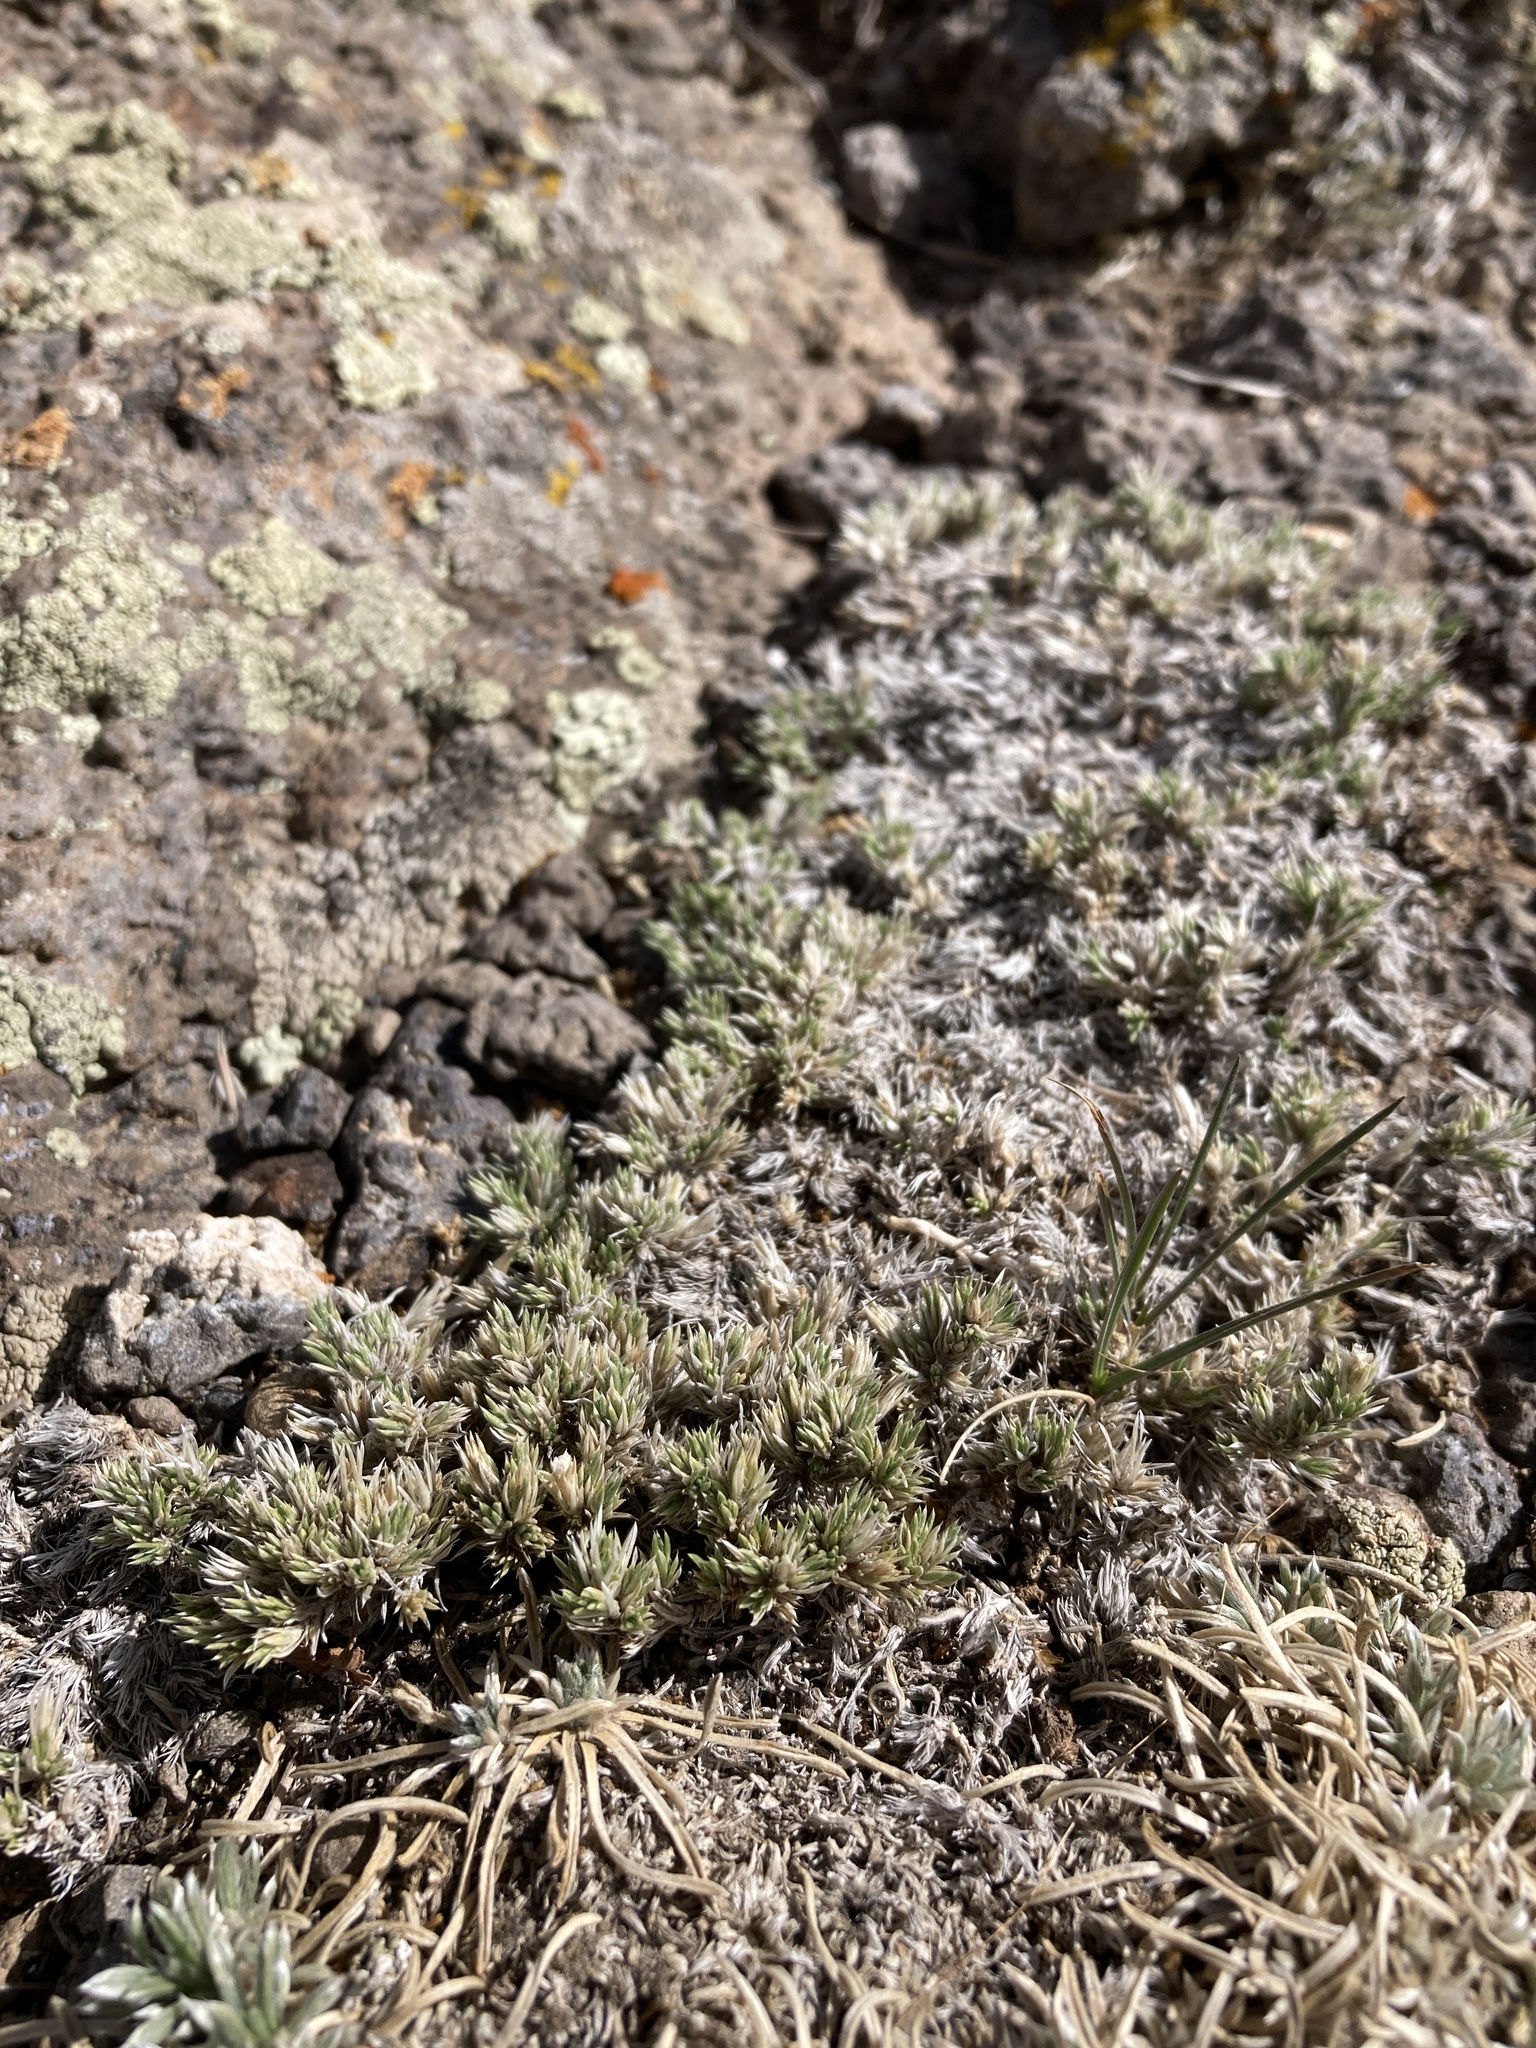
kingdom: Plantae
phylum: Tracheophyta
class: Magnoliopsida
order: Ericales
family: Polemoniaceae
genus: Phlox
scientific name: Phlox hoodii
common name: Moss phlox
